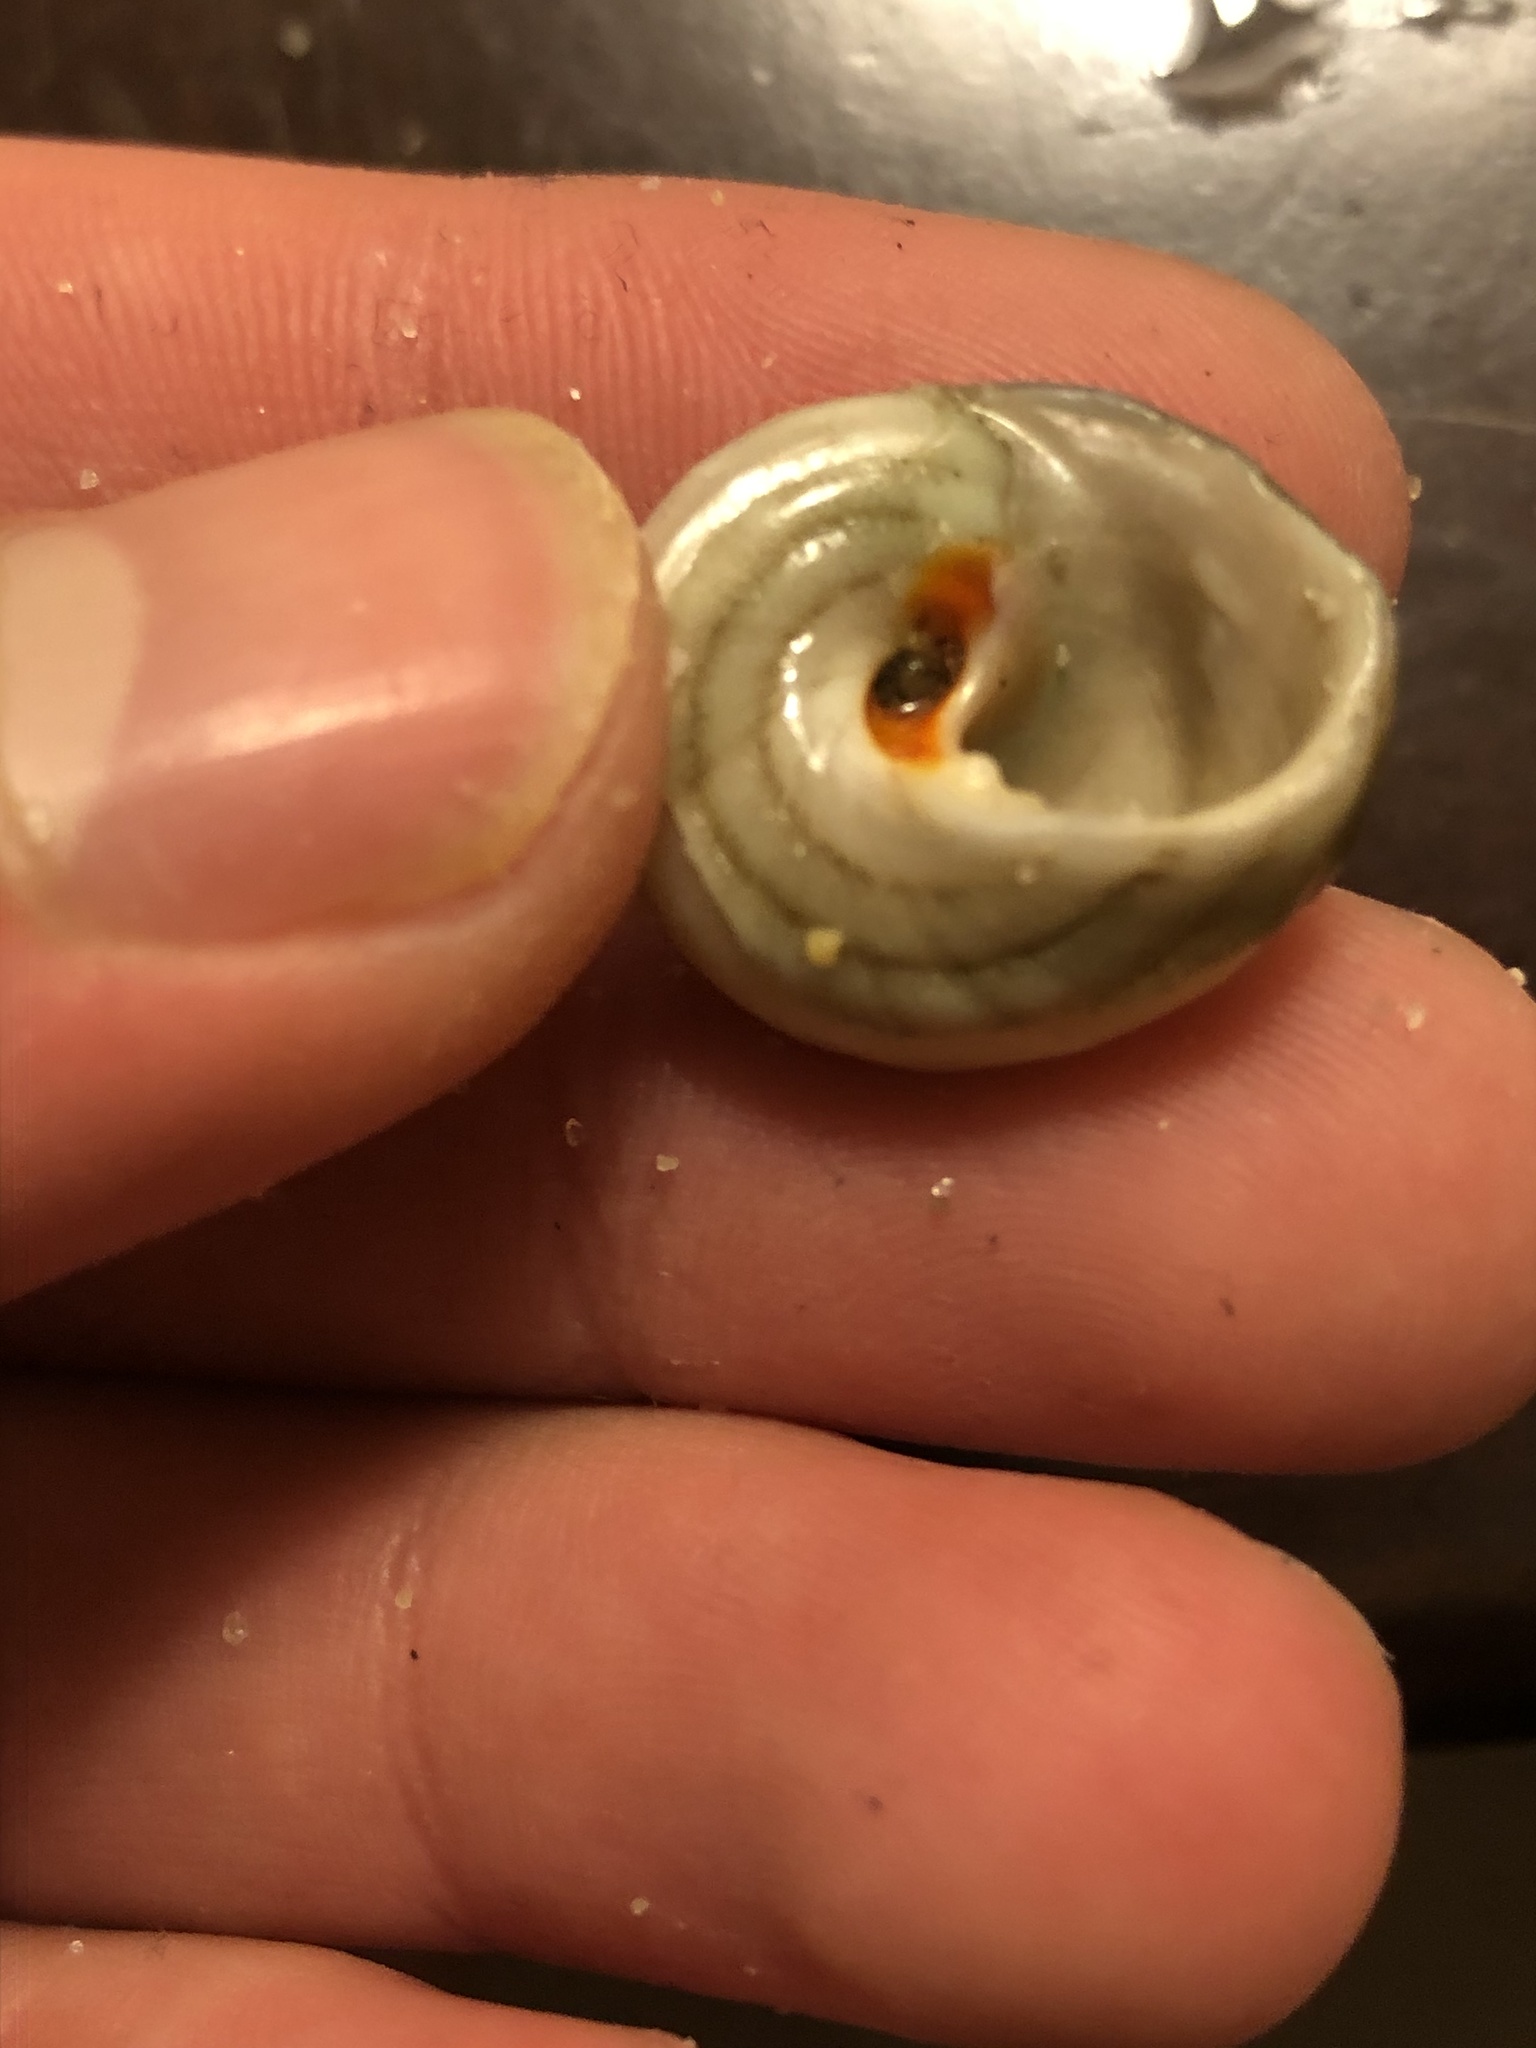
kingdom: Animalia
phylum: Mollusca
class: Gastropoda
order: Trochida
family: Tegulidae
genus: Tegula
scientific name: Tegula aureotincta
